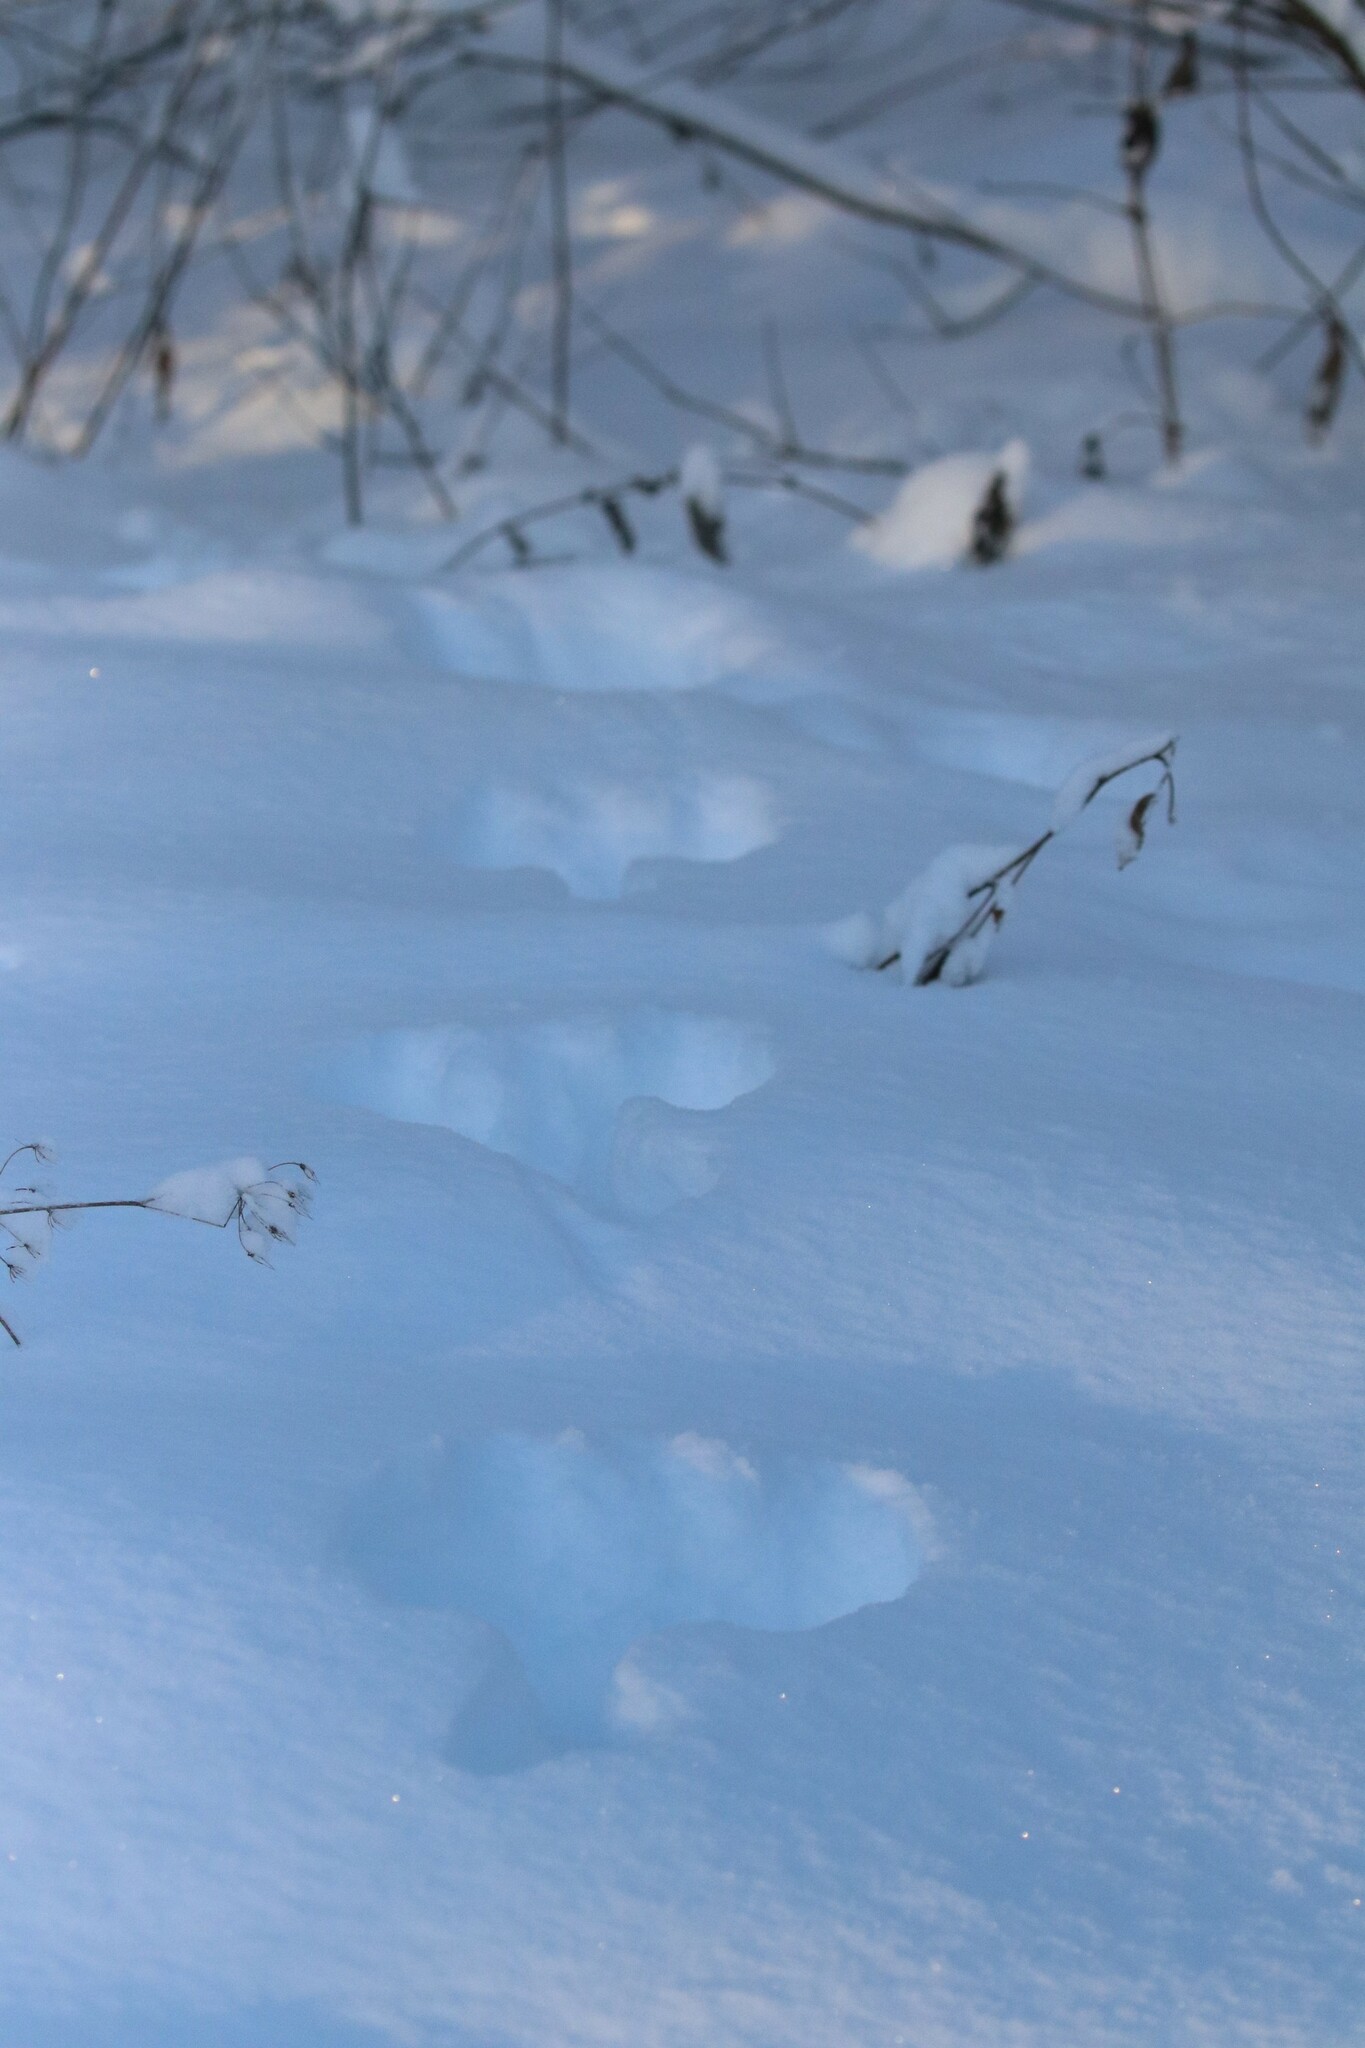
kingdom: Animalia
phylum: Chordata
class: Mammalia
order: Lagomorpha
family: Leporidae
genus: Lepus
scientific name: Lepus timidus
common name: Mountain hare
